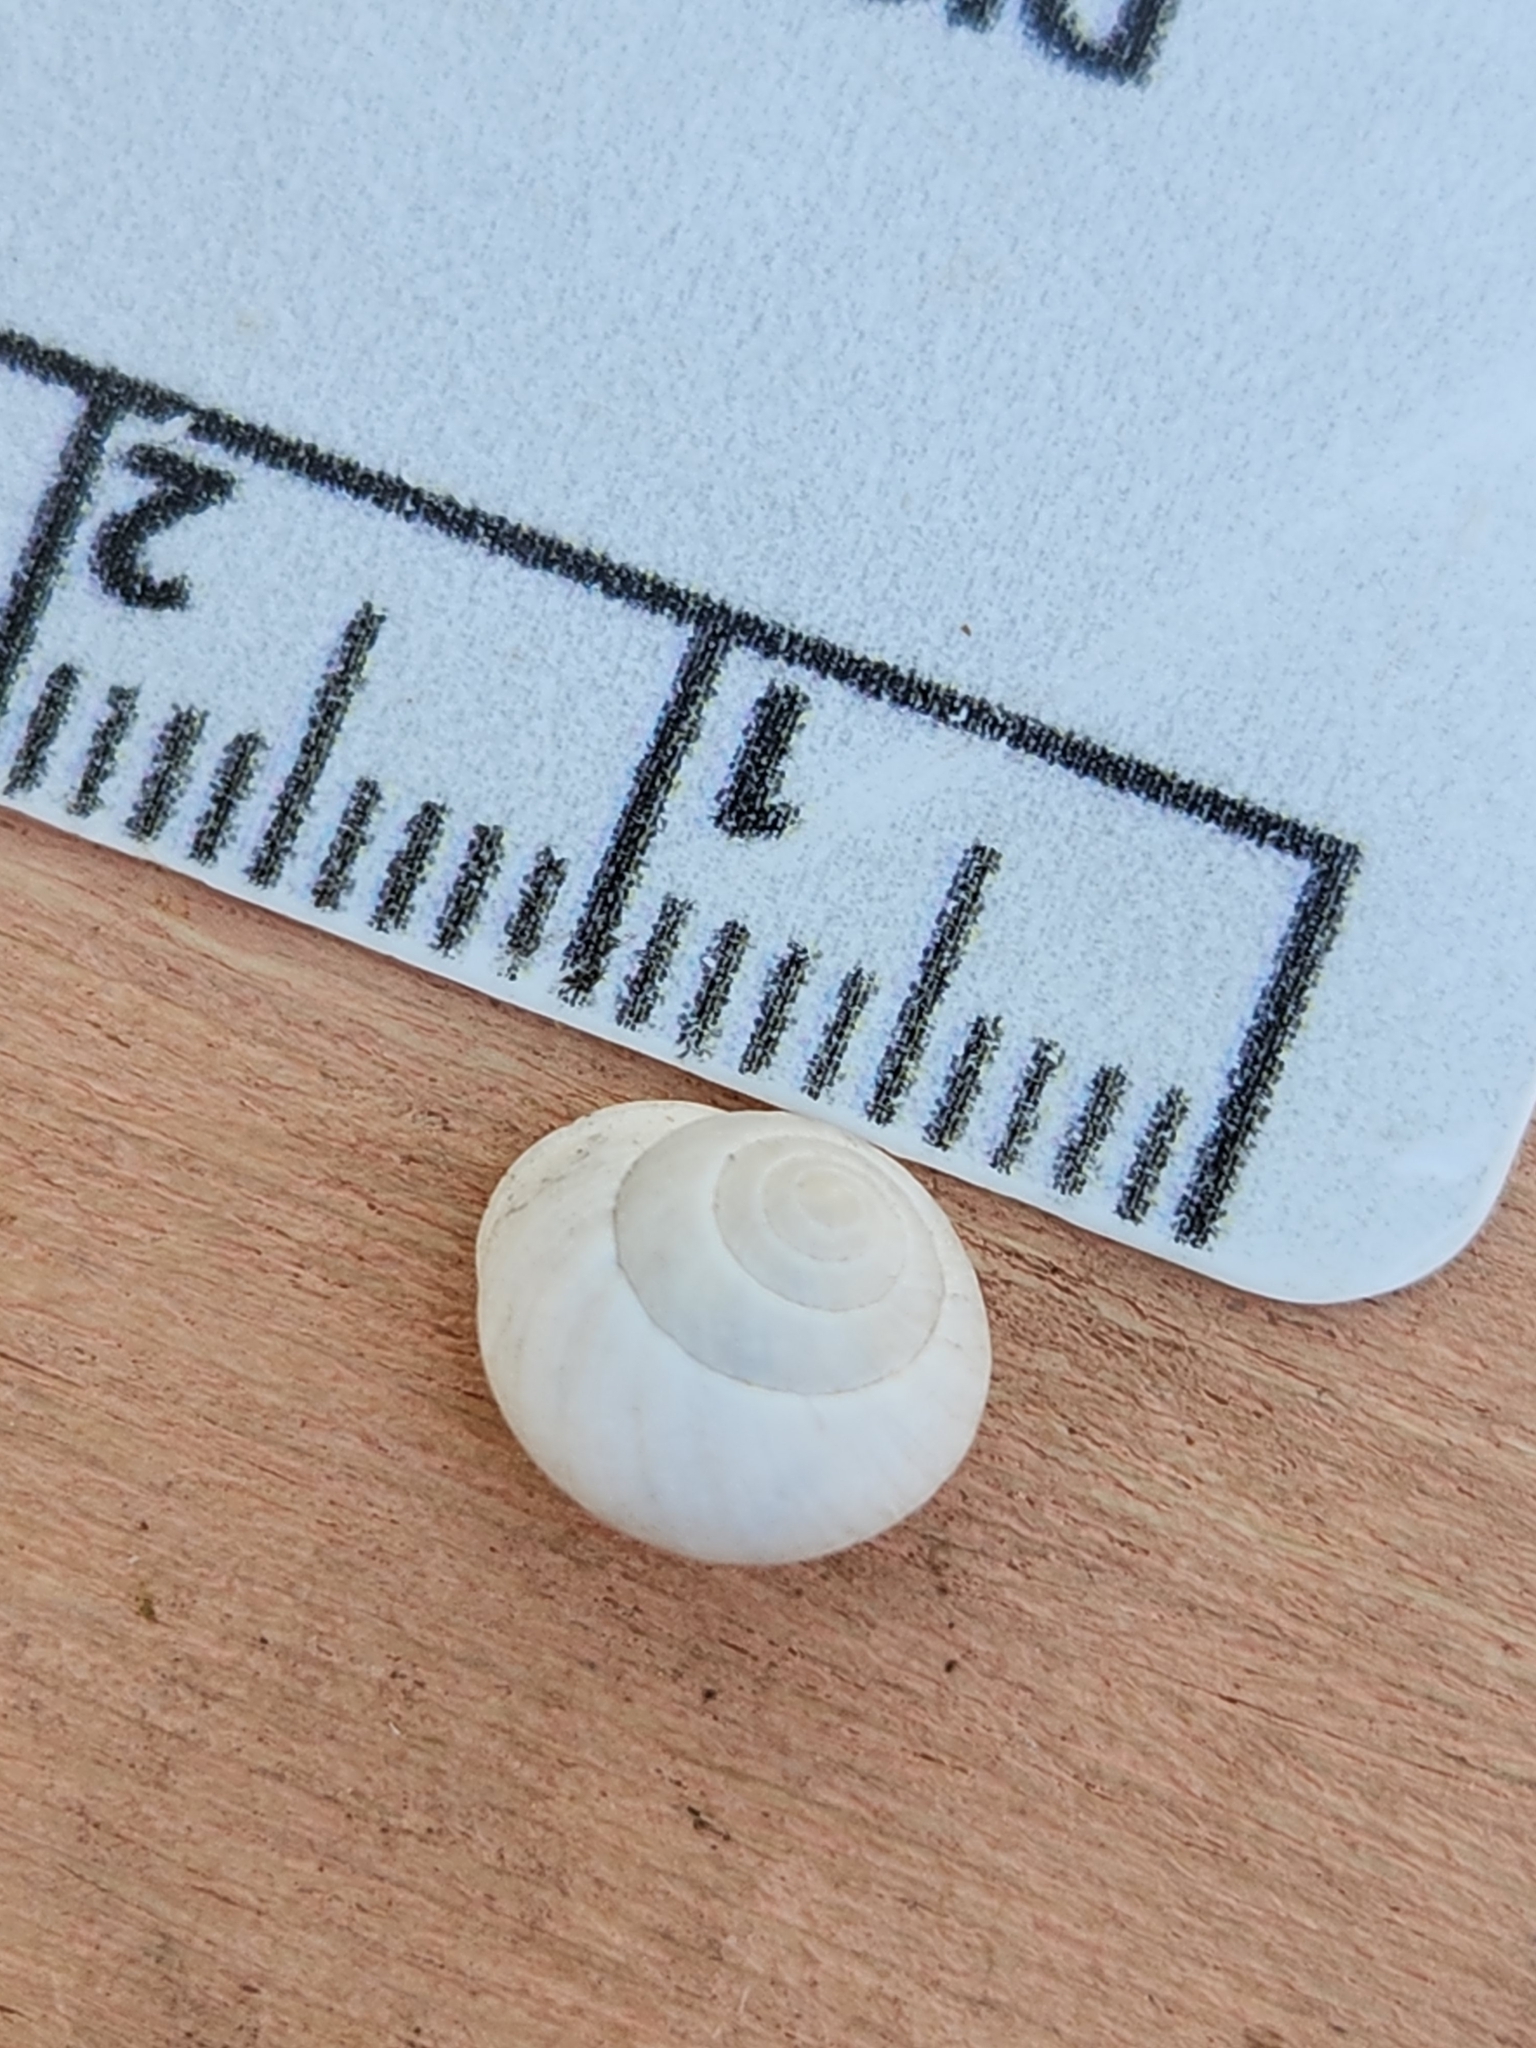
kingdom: Animalia
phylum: Mollusca
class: Gastropoda
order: Cycloneritida
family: Helicinidae
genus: Helicina
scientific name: Helicina orbiculata
